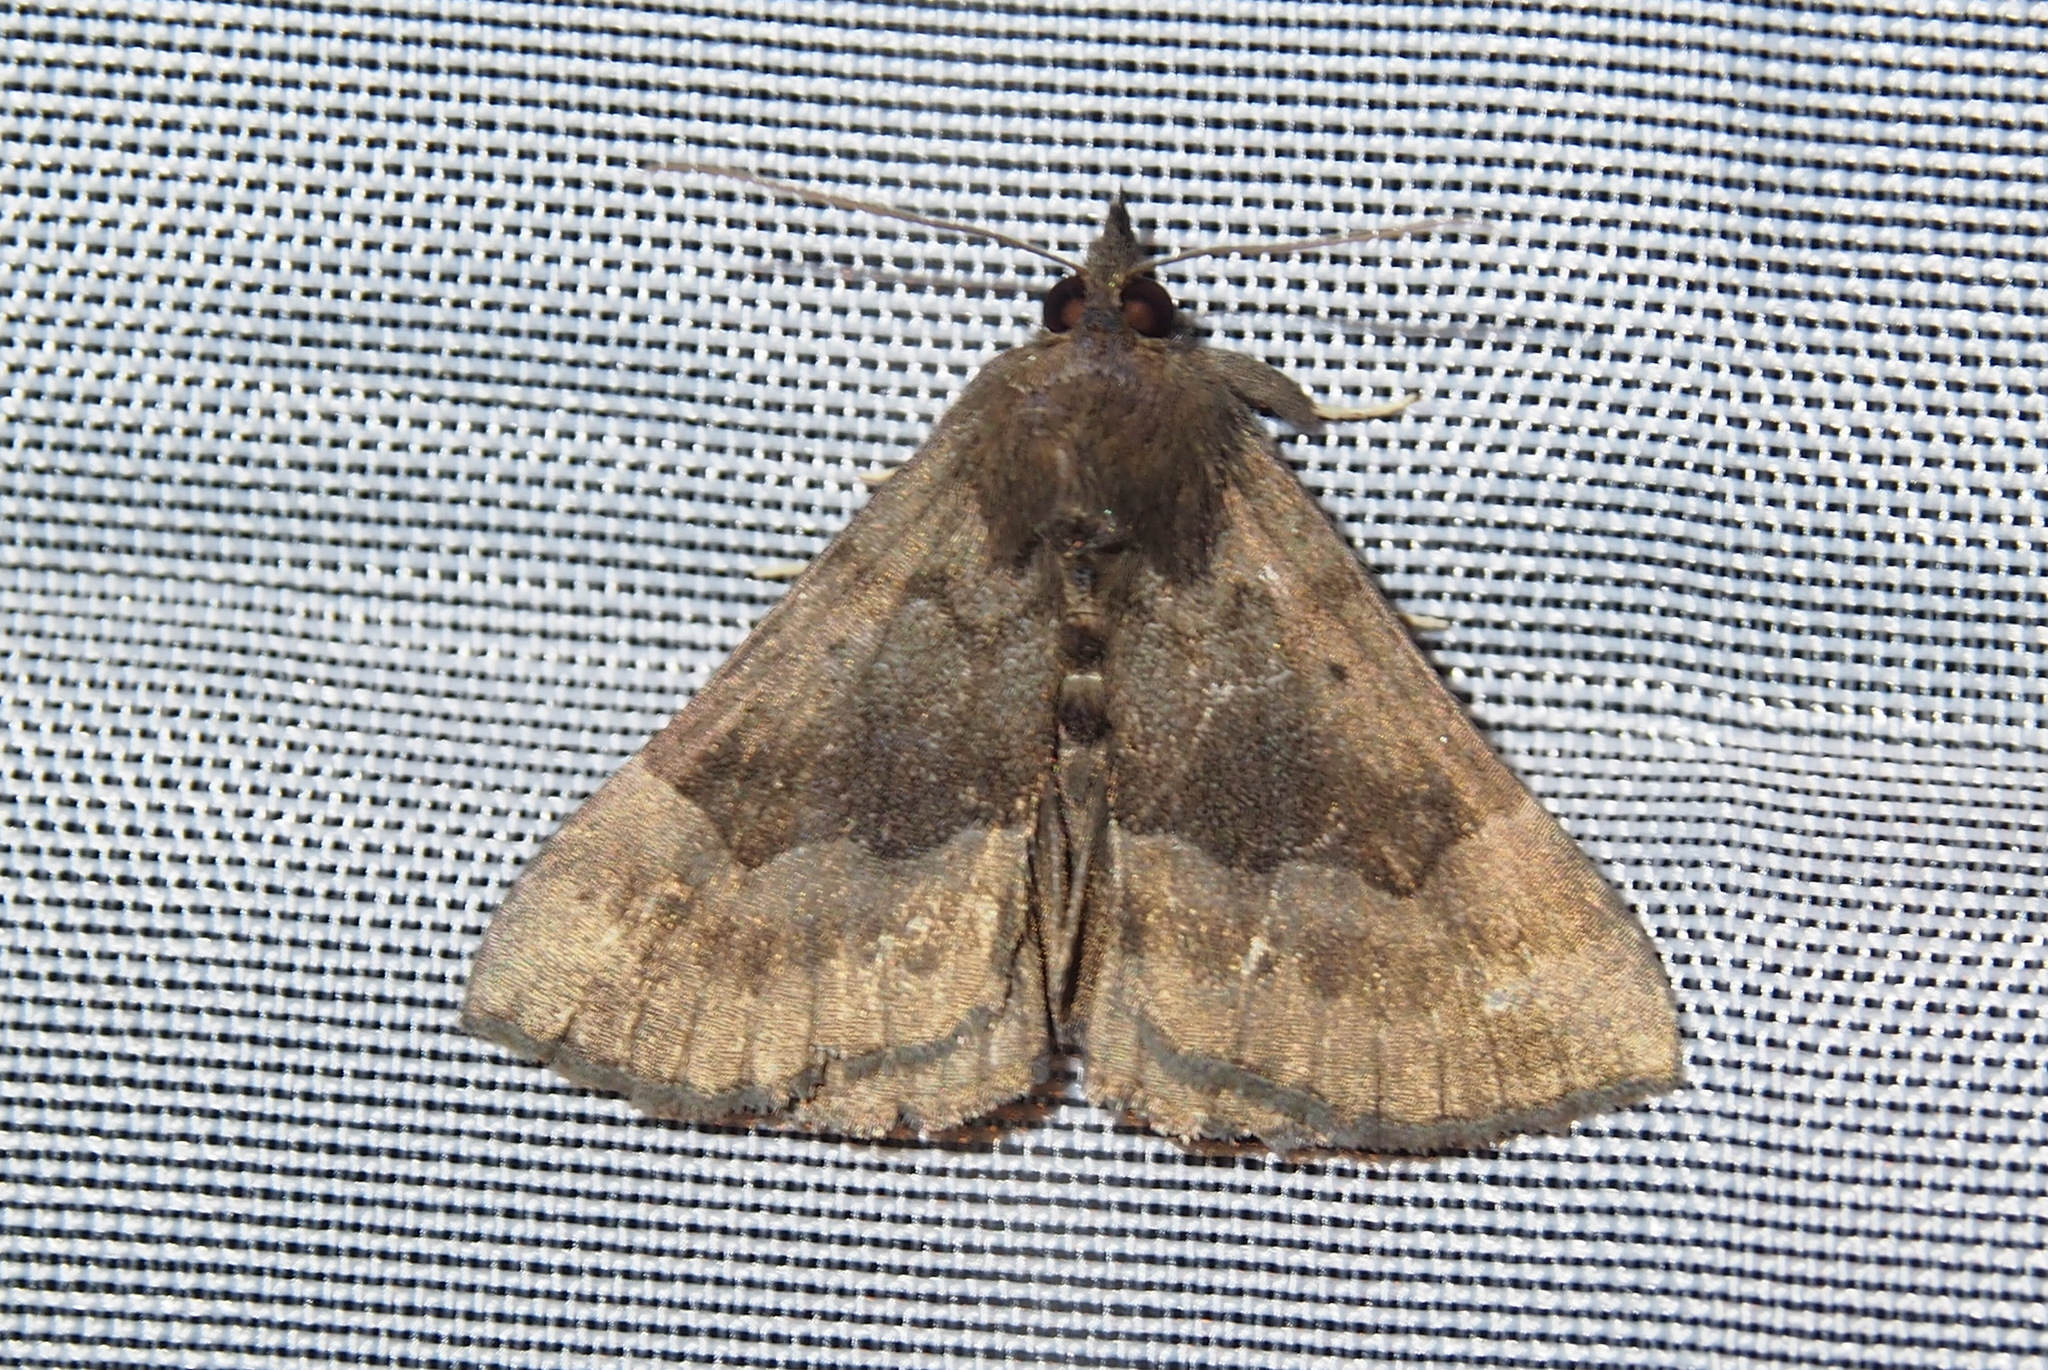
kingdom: Animalia
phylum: Arthropoda
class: Insecta
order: Lepidoptera
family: Erebidae
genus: Hypena
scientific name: Hypena madefactalis
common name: Gray-edged snout
